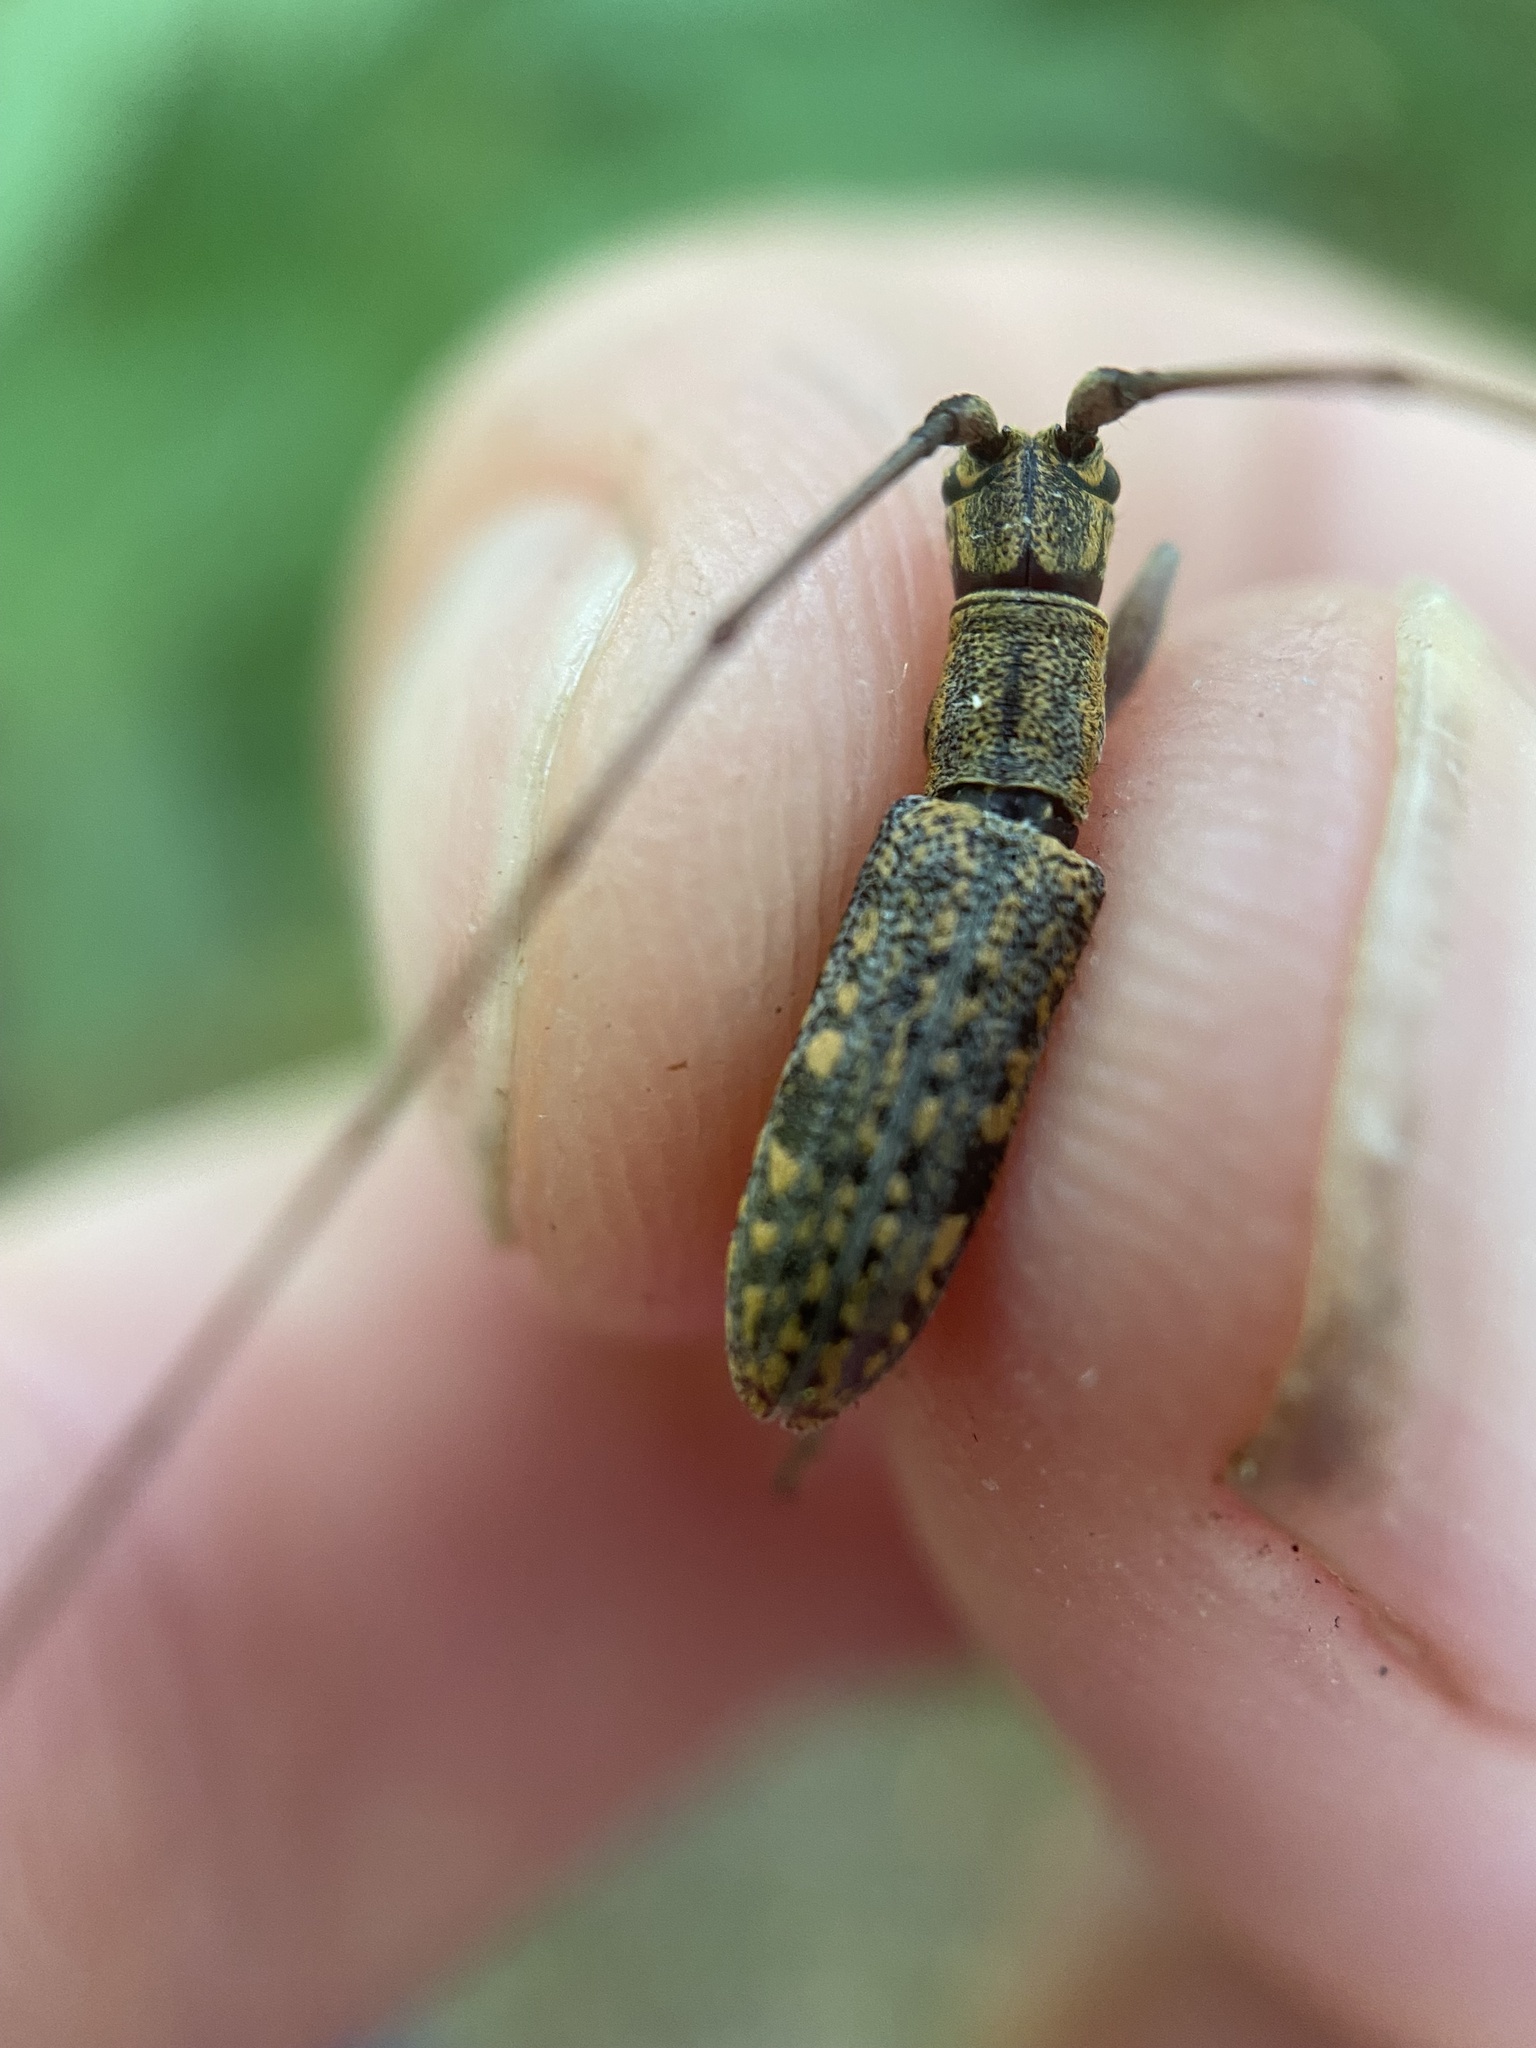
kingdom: Animalia
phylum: Arthropoda
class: Insecta
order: Coleoptera
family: Cerambycidae
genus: Dorcaschema
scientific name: Dorcaschema alternatum
